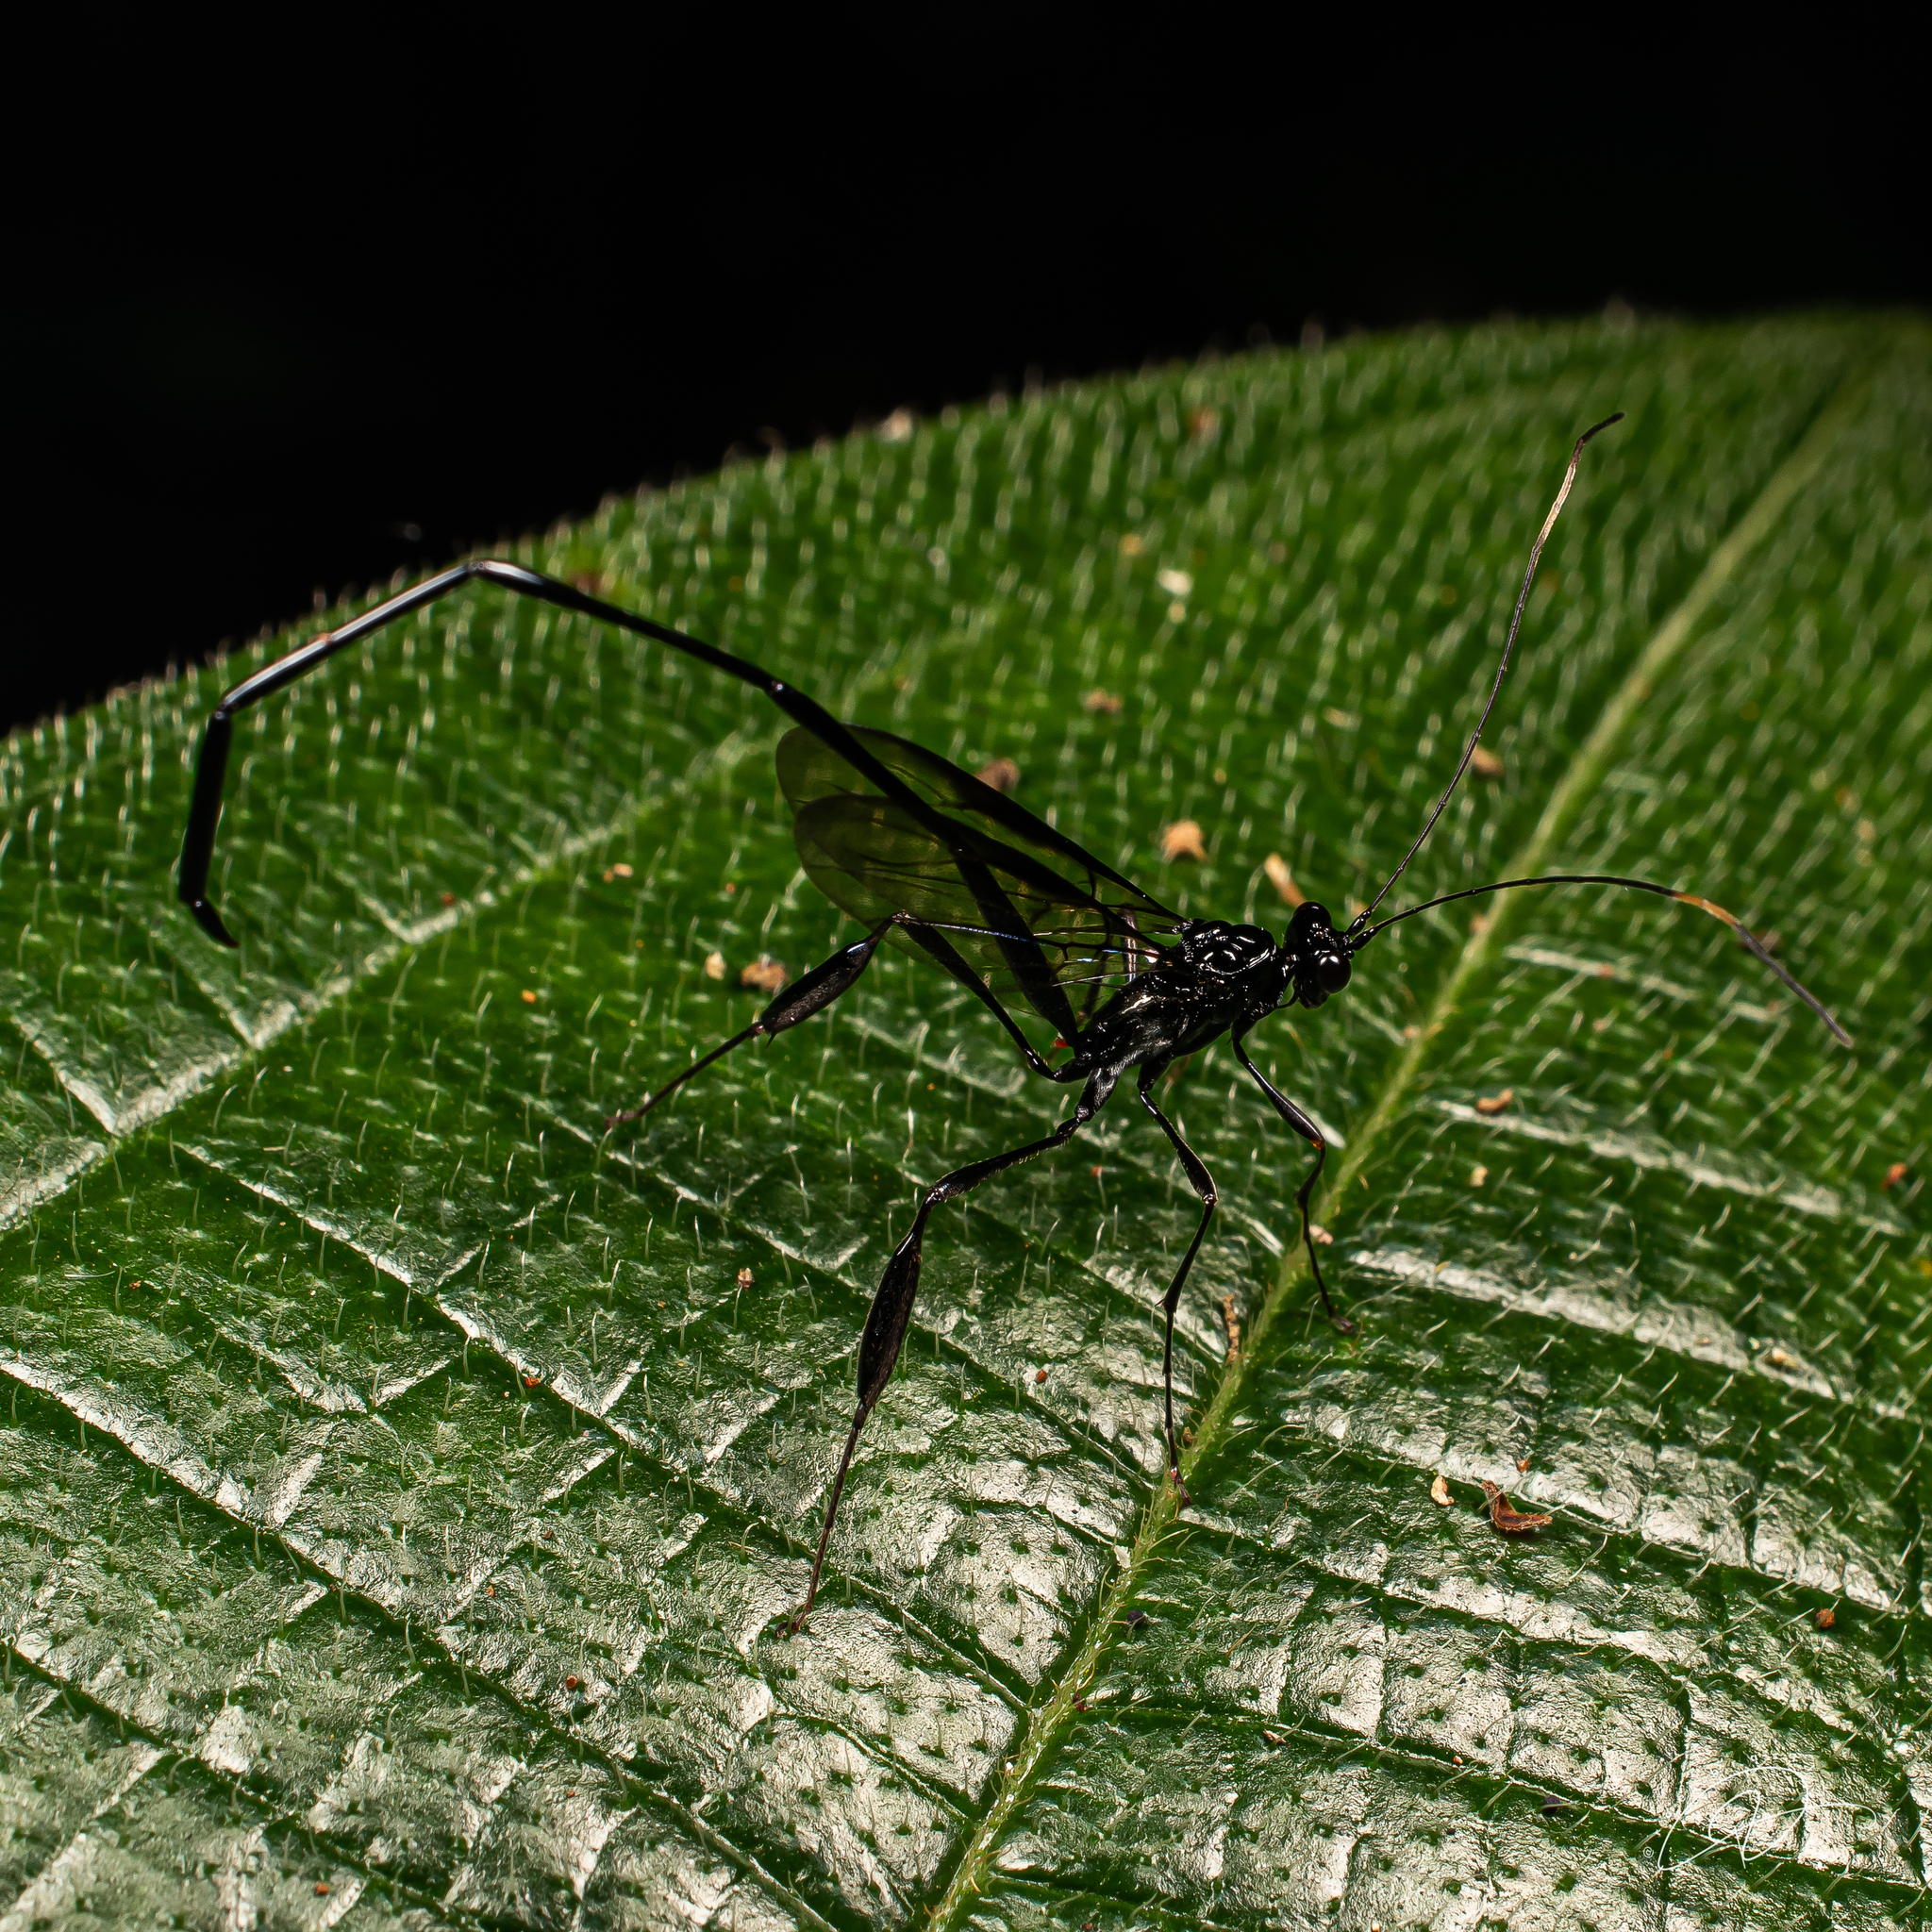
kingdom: Animalia
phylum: Arthropoda
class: Insecta
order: Hymenoptera
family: Pelecinidae
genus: Pelecinus
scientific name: Pelecinus polyturator
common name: American pelecinid wasp
